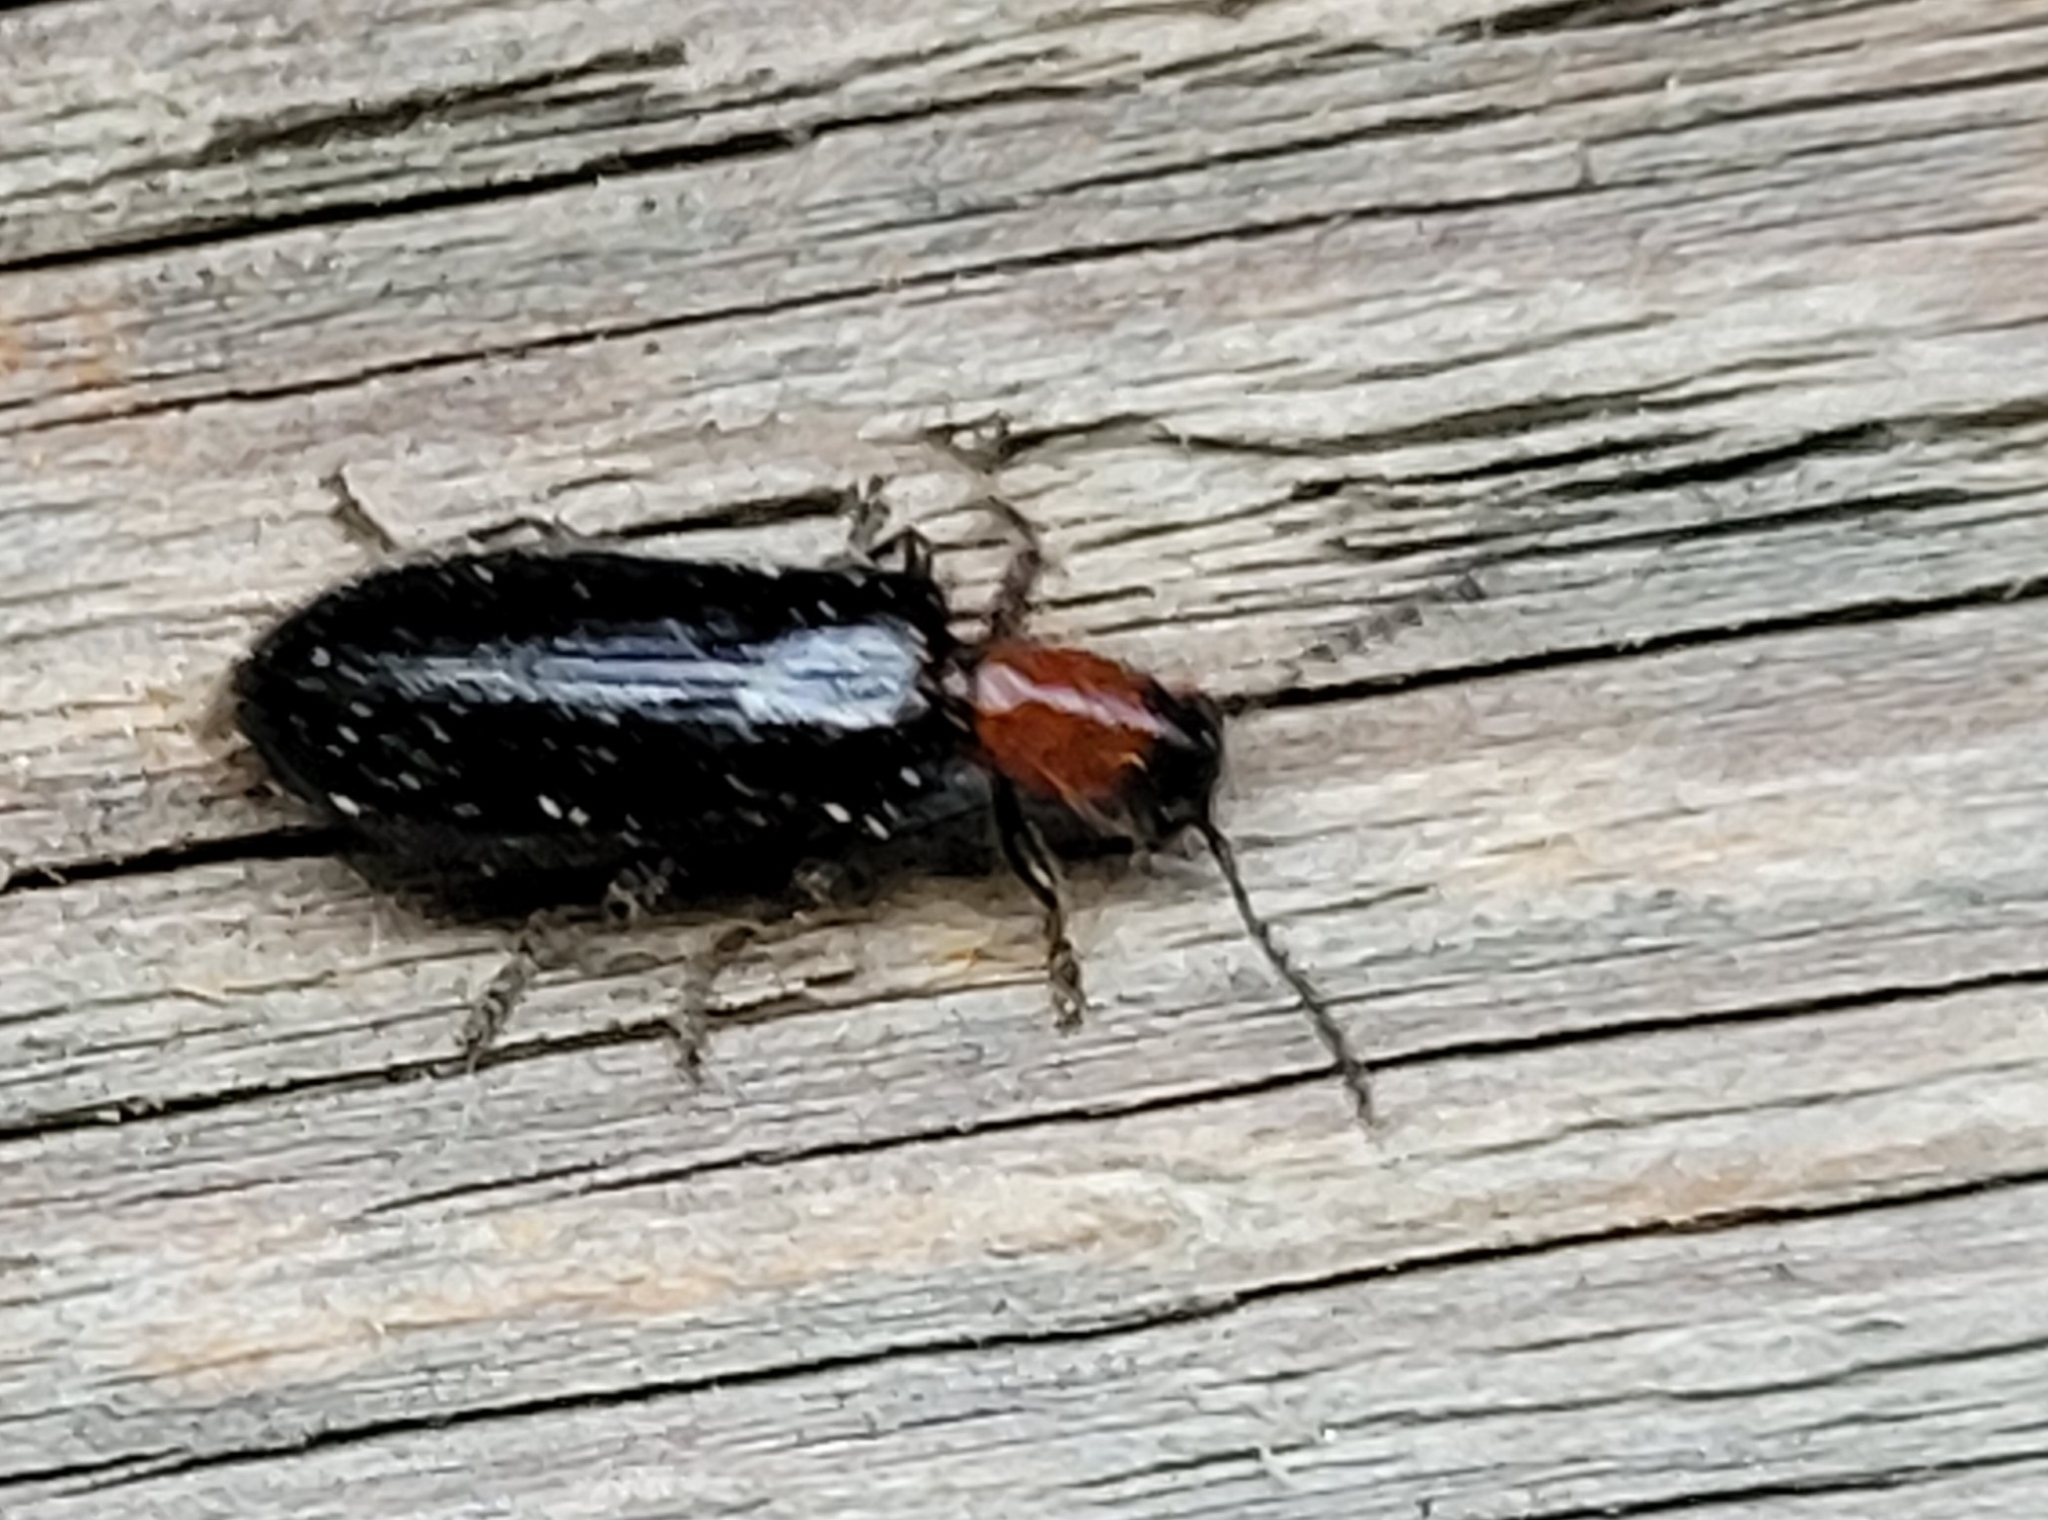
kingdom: Animalia
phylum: Arthropoda
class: Insecta
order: Coleoptera
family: Cleridae
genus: Tillus
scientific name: Tillus elongatus
